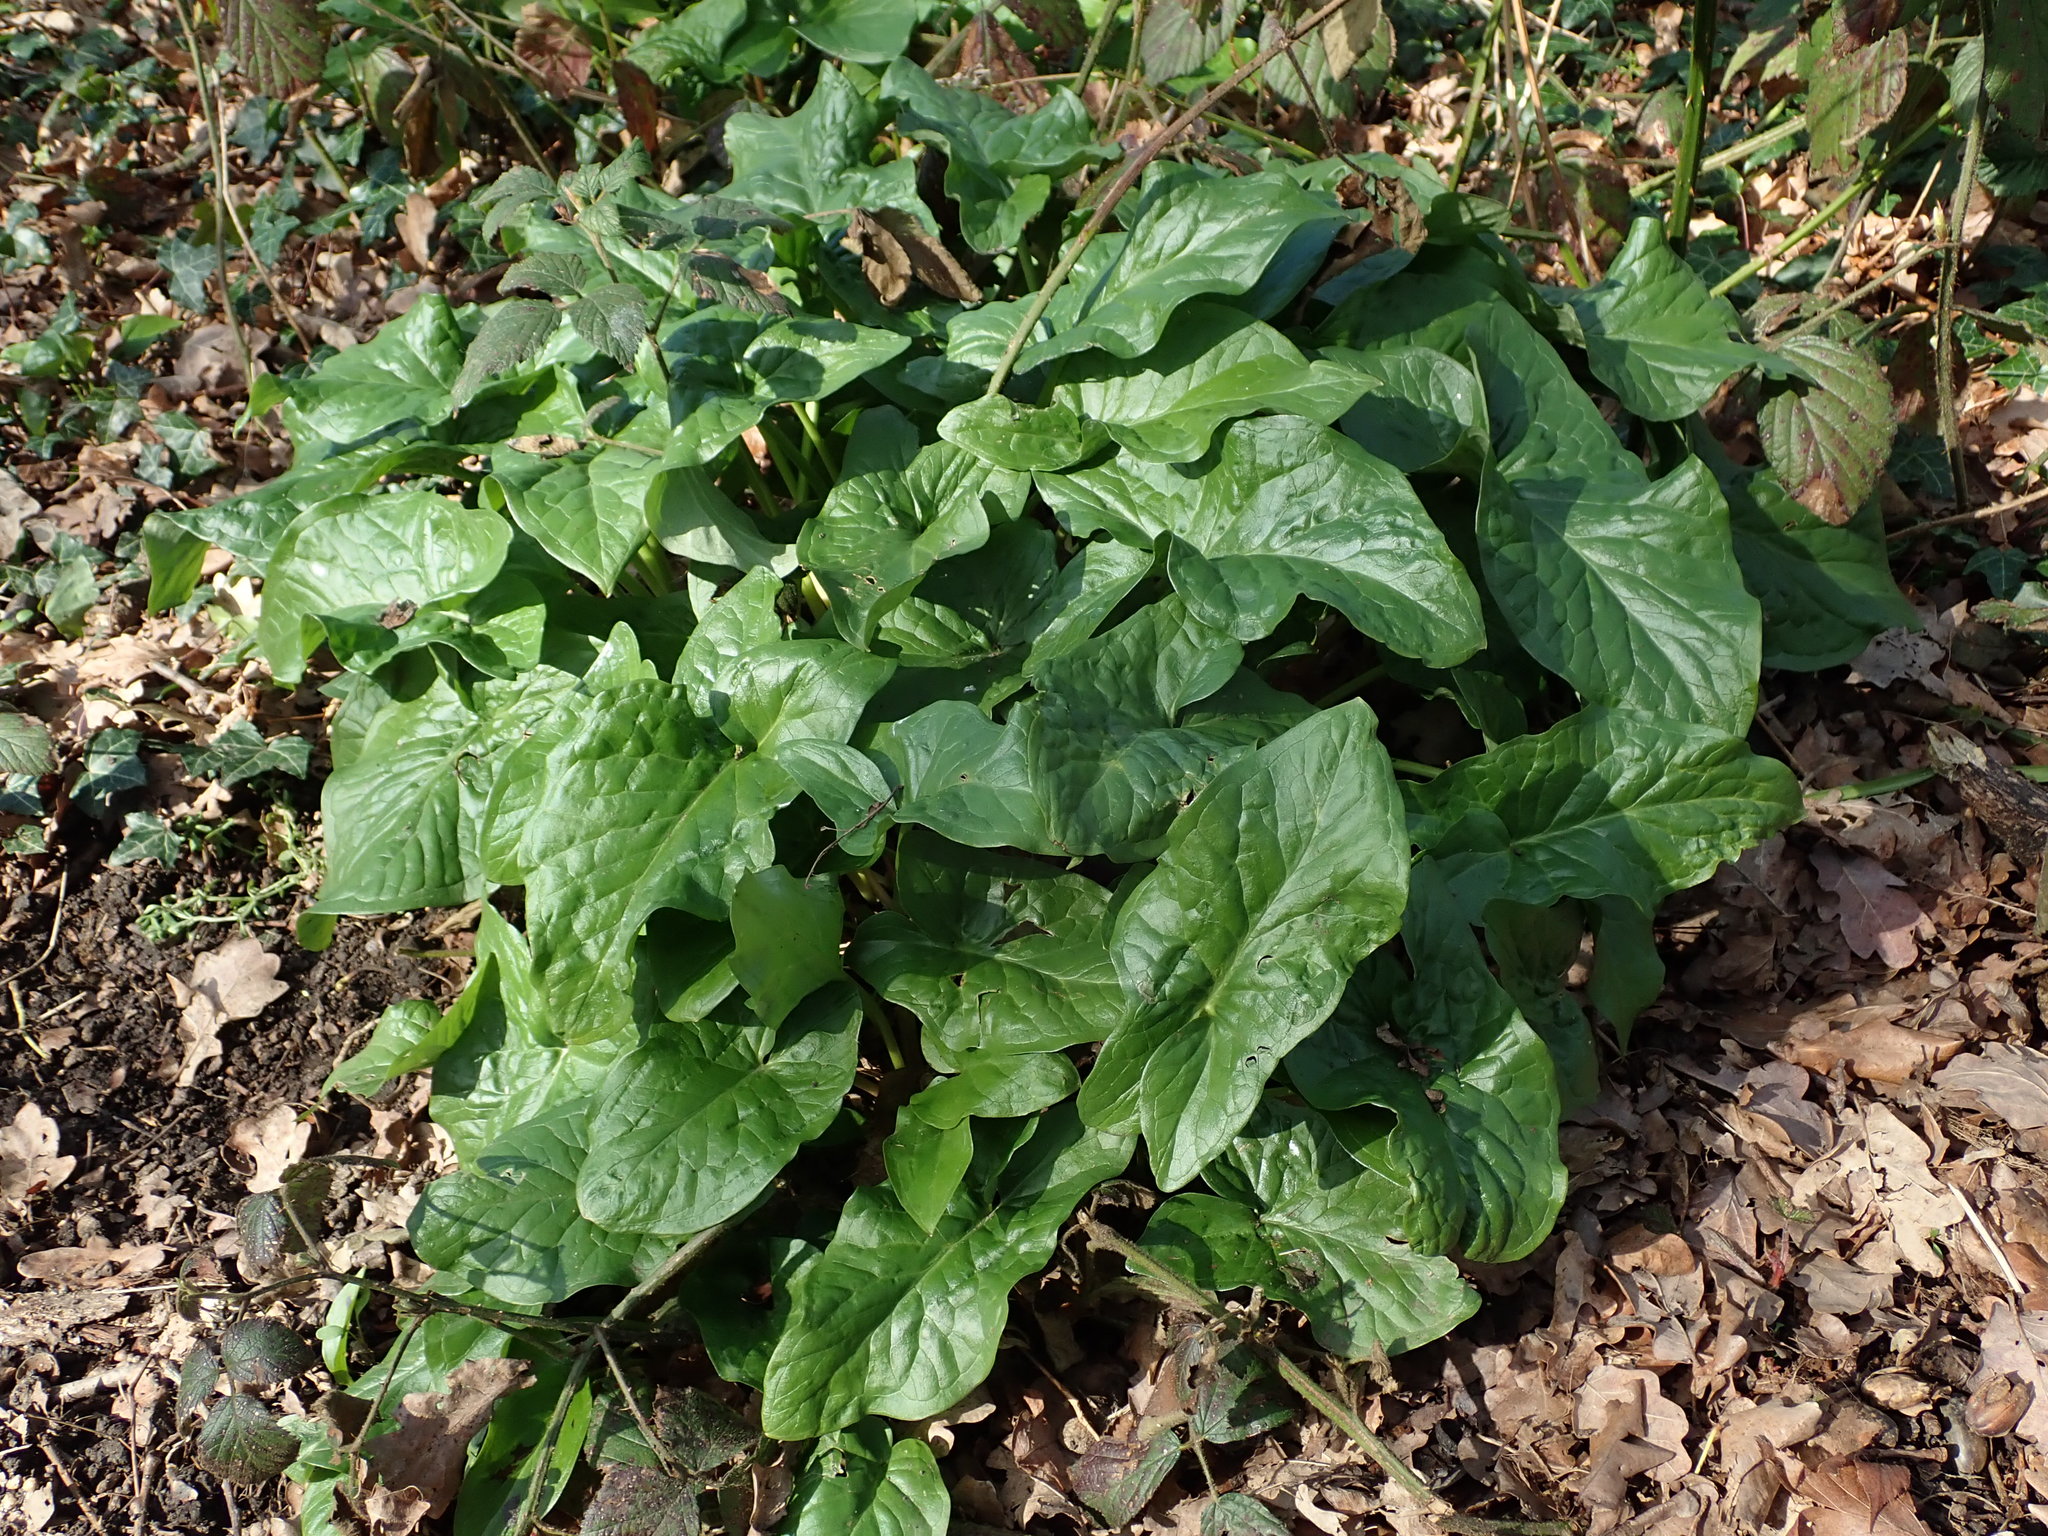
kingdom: Plantae
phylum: Tracheophyta
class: Liliopsida
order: Alismatales
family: Araceae
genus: Arum
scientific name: Arum maculatum
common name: Lords-and-ladies
